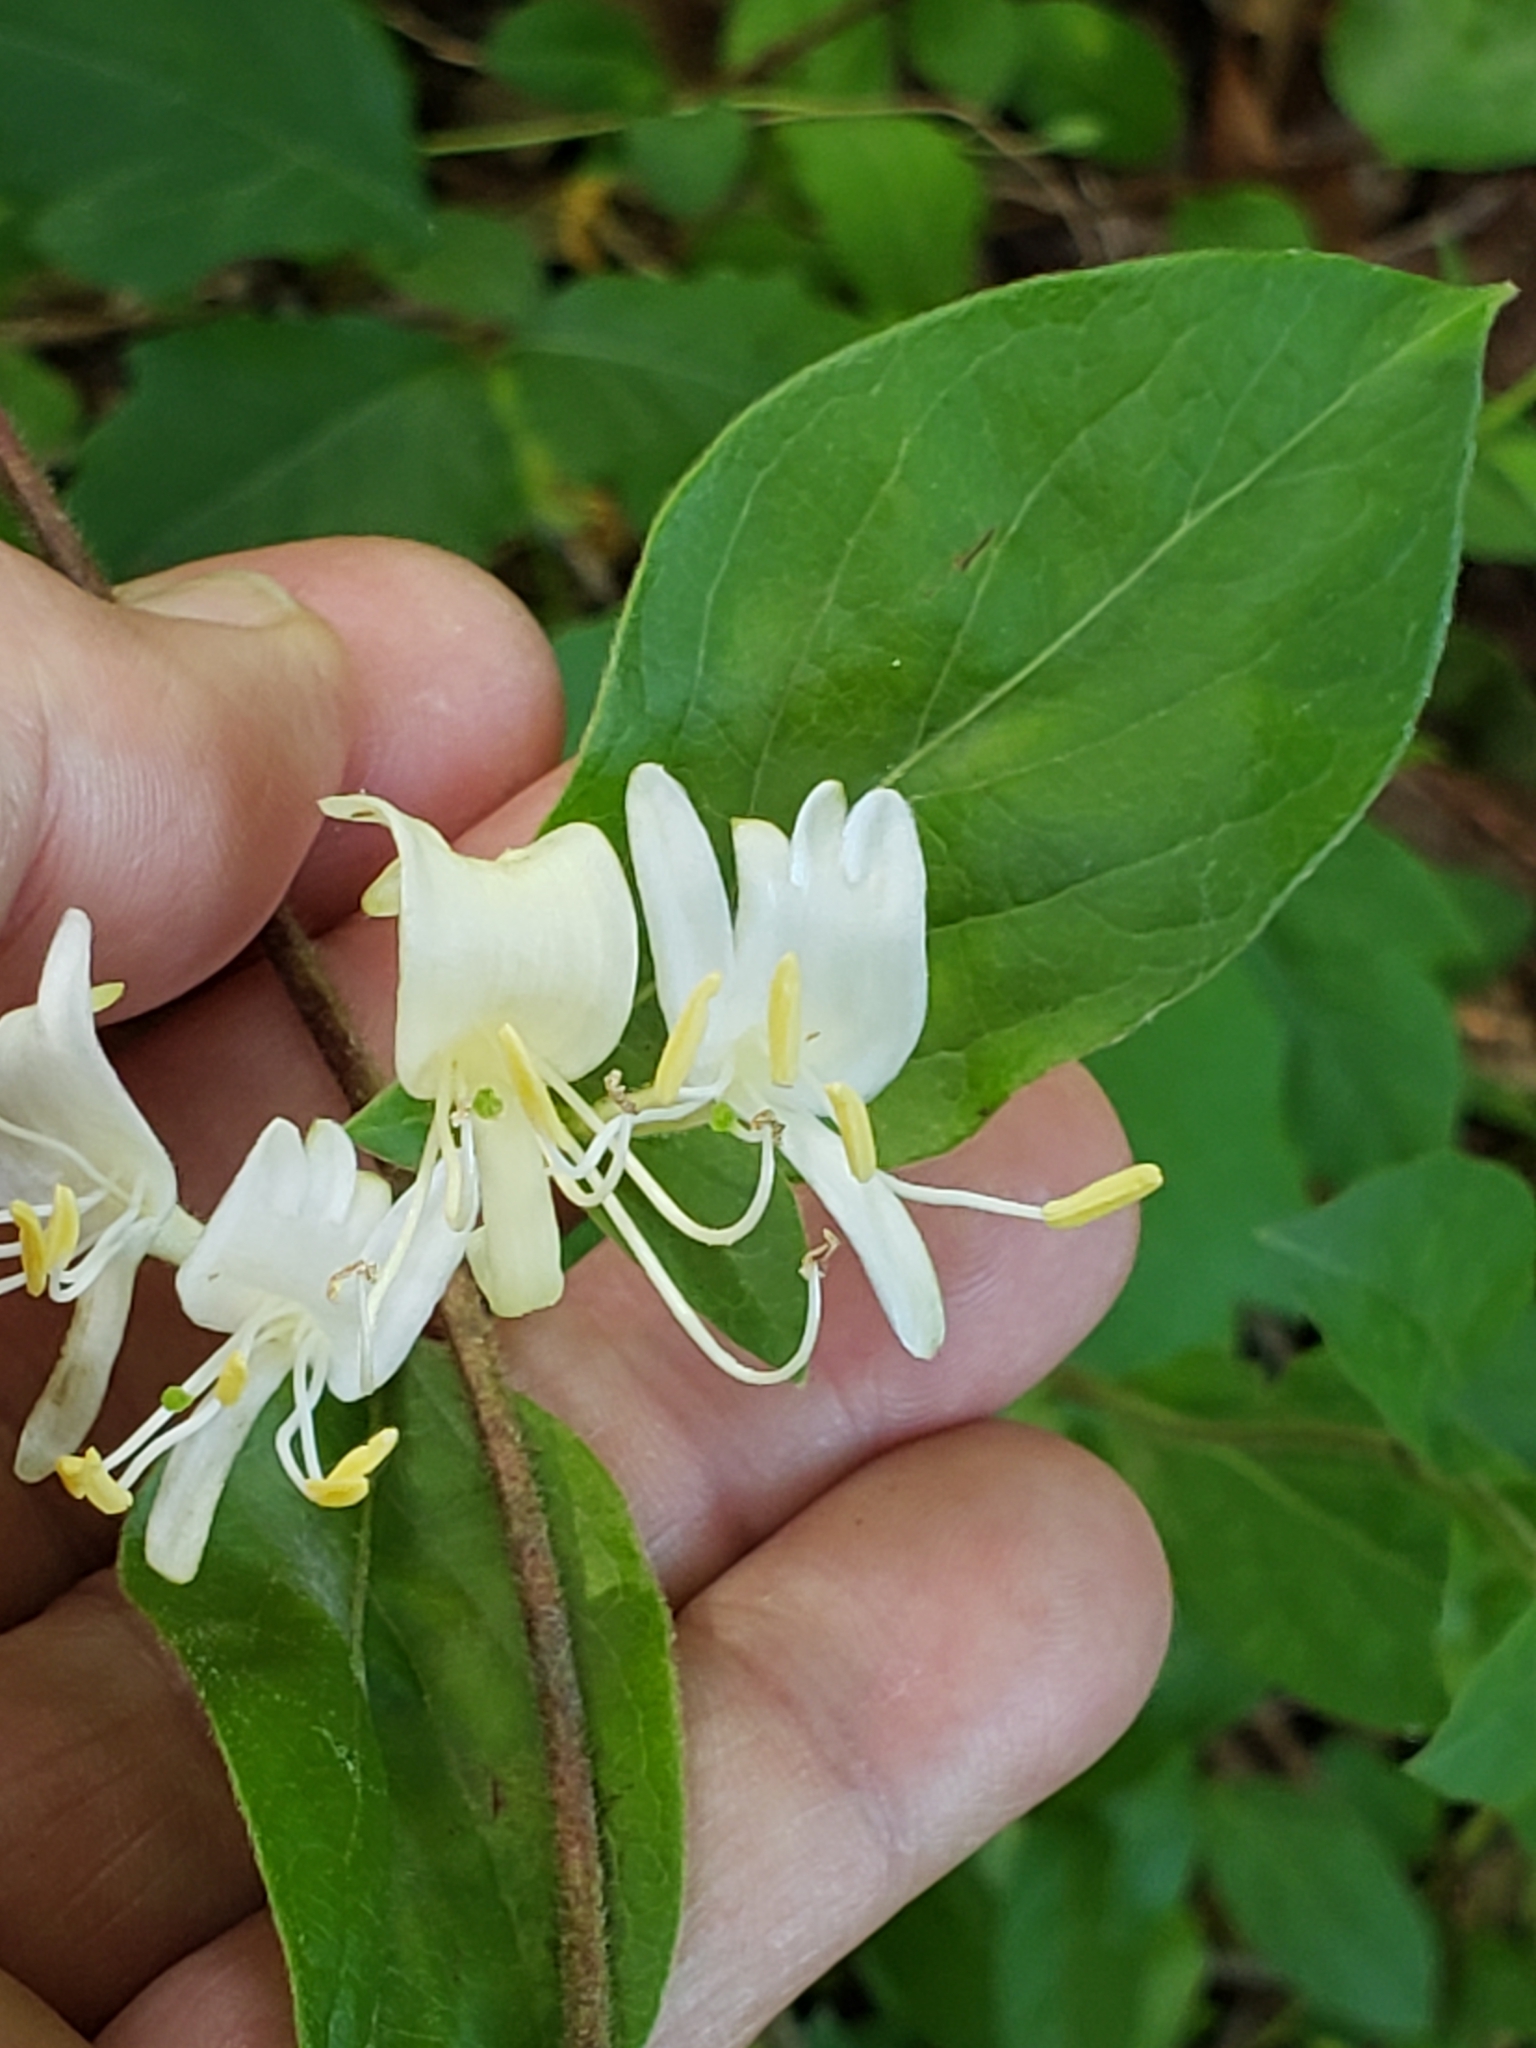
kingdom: Plantae
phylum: Tracheophyta
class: Magnoliopsida
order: Dipsacales
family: Caprifoliaceae
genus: Lonicera
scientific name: Lonicera japonica
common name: Japanese honeysuckle
